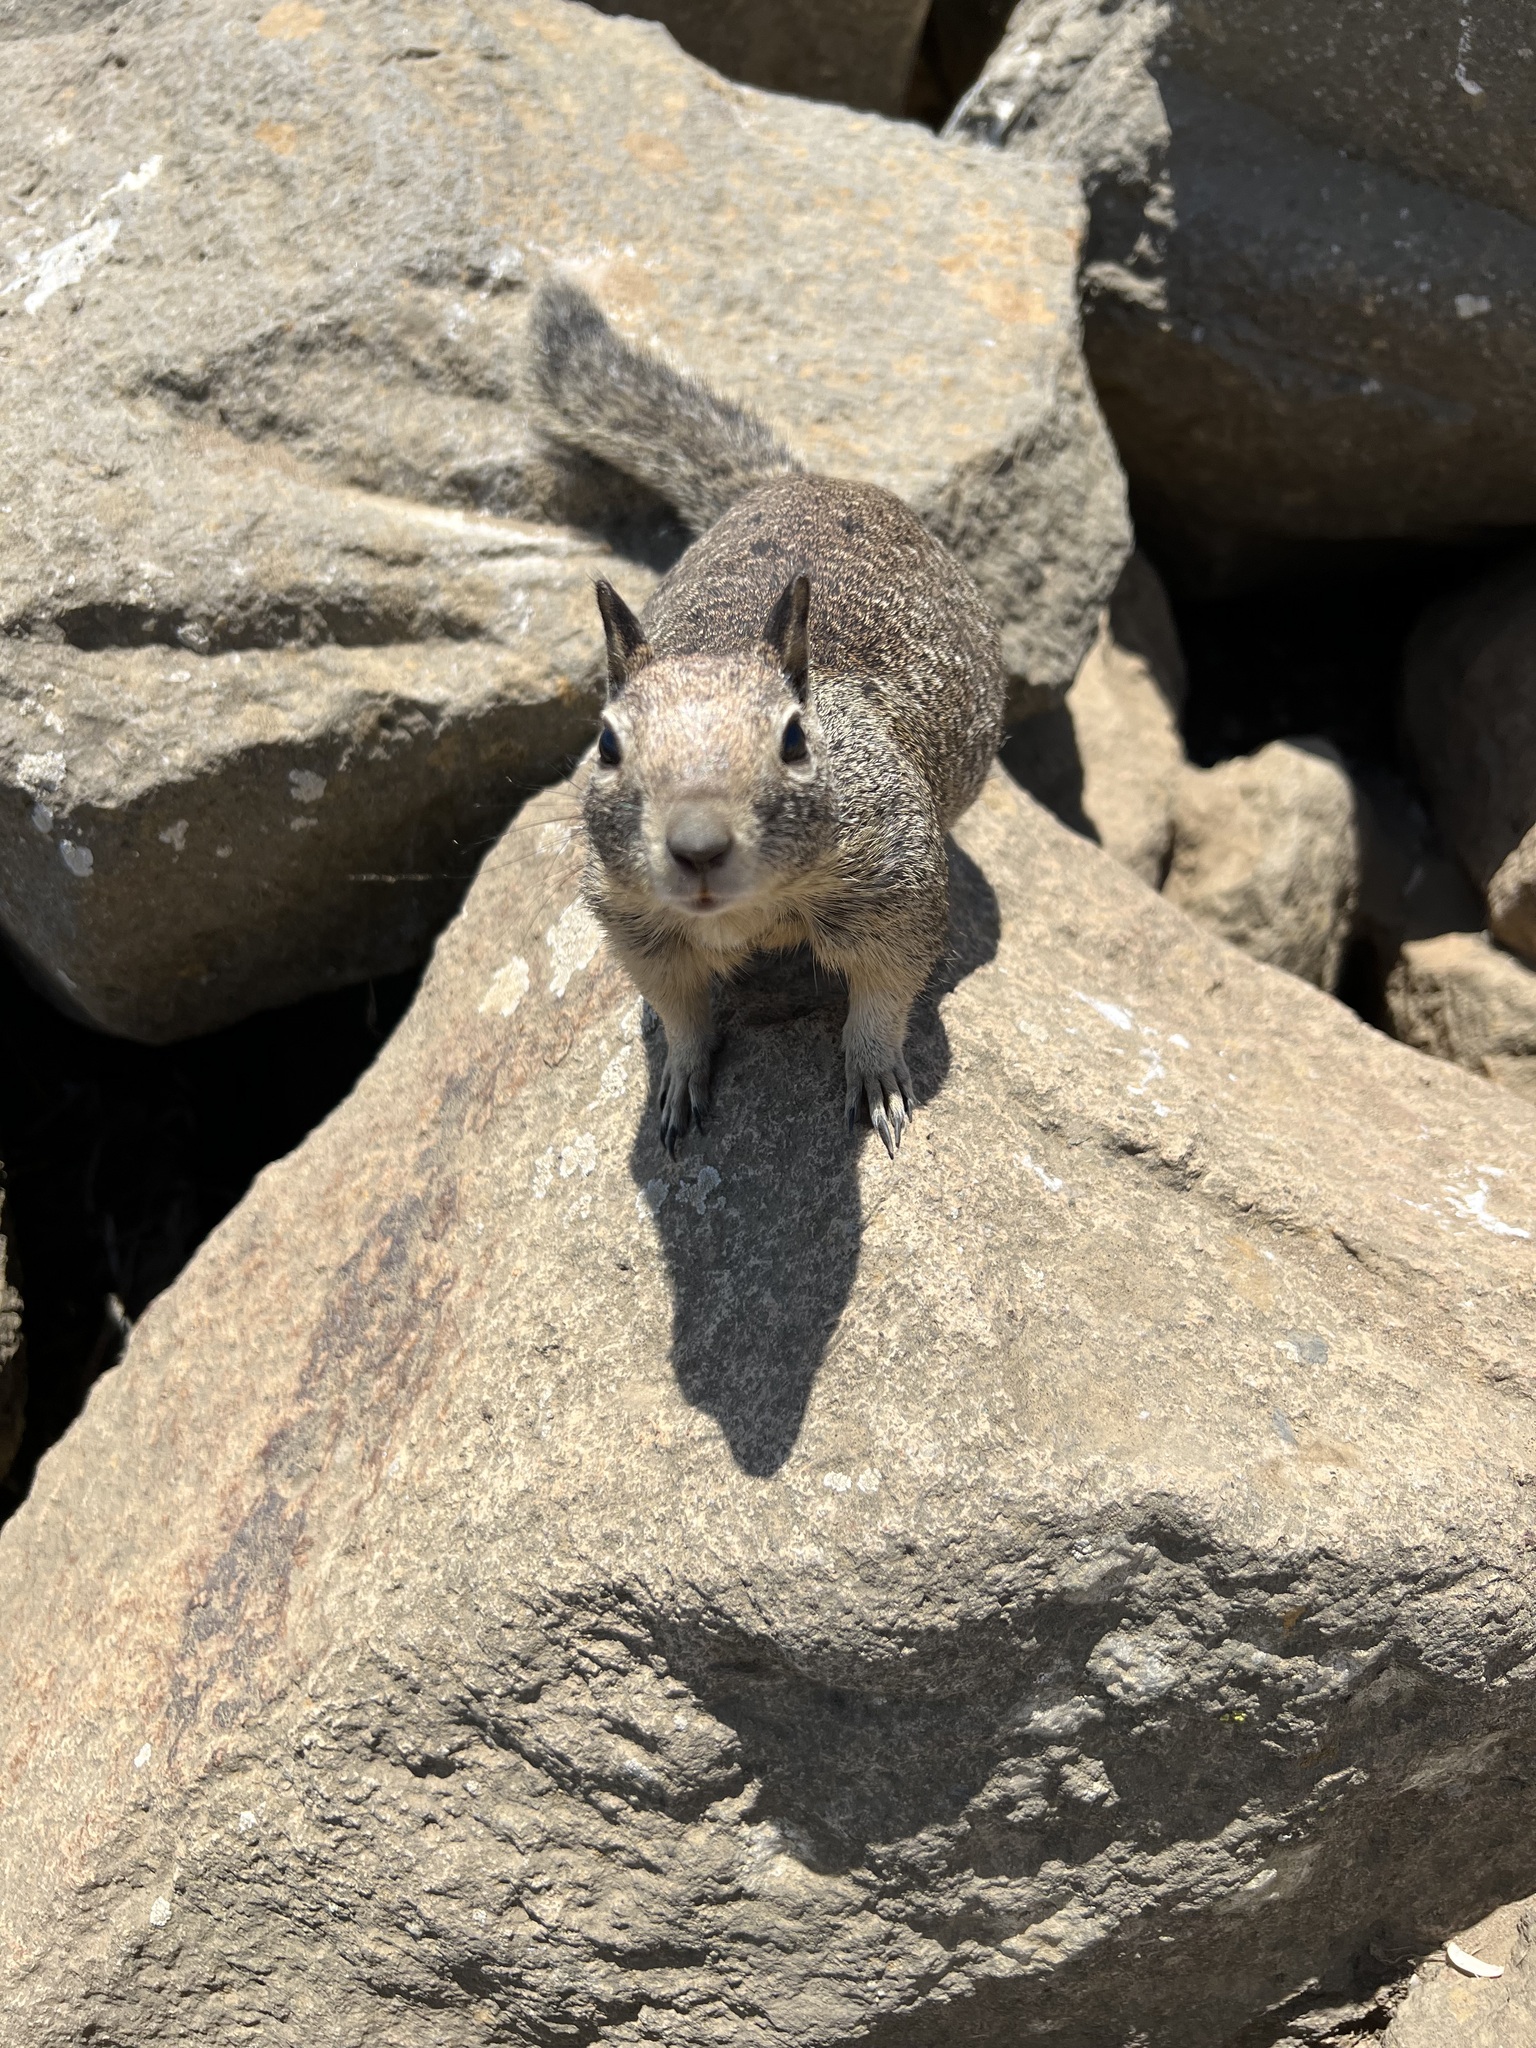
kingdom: Animalia
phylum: Chordata
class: Mammalia
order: Rodentia
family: Sciuridae
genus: Otospermophilus
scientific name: Otospermophilus beecheyi
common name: California ground squirrel
